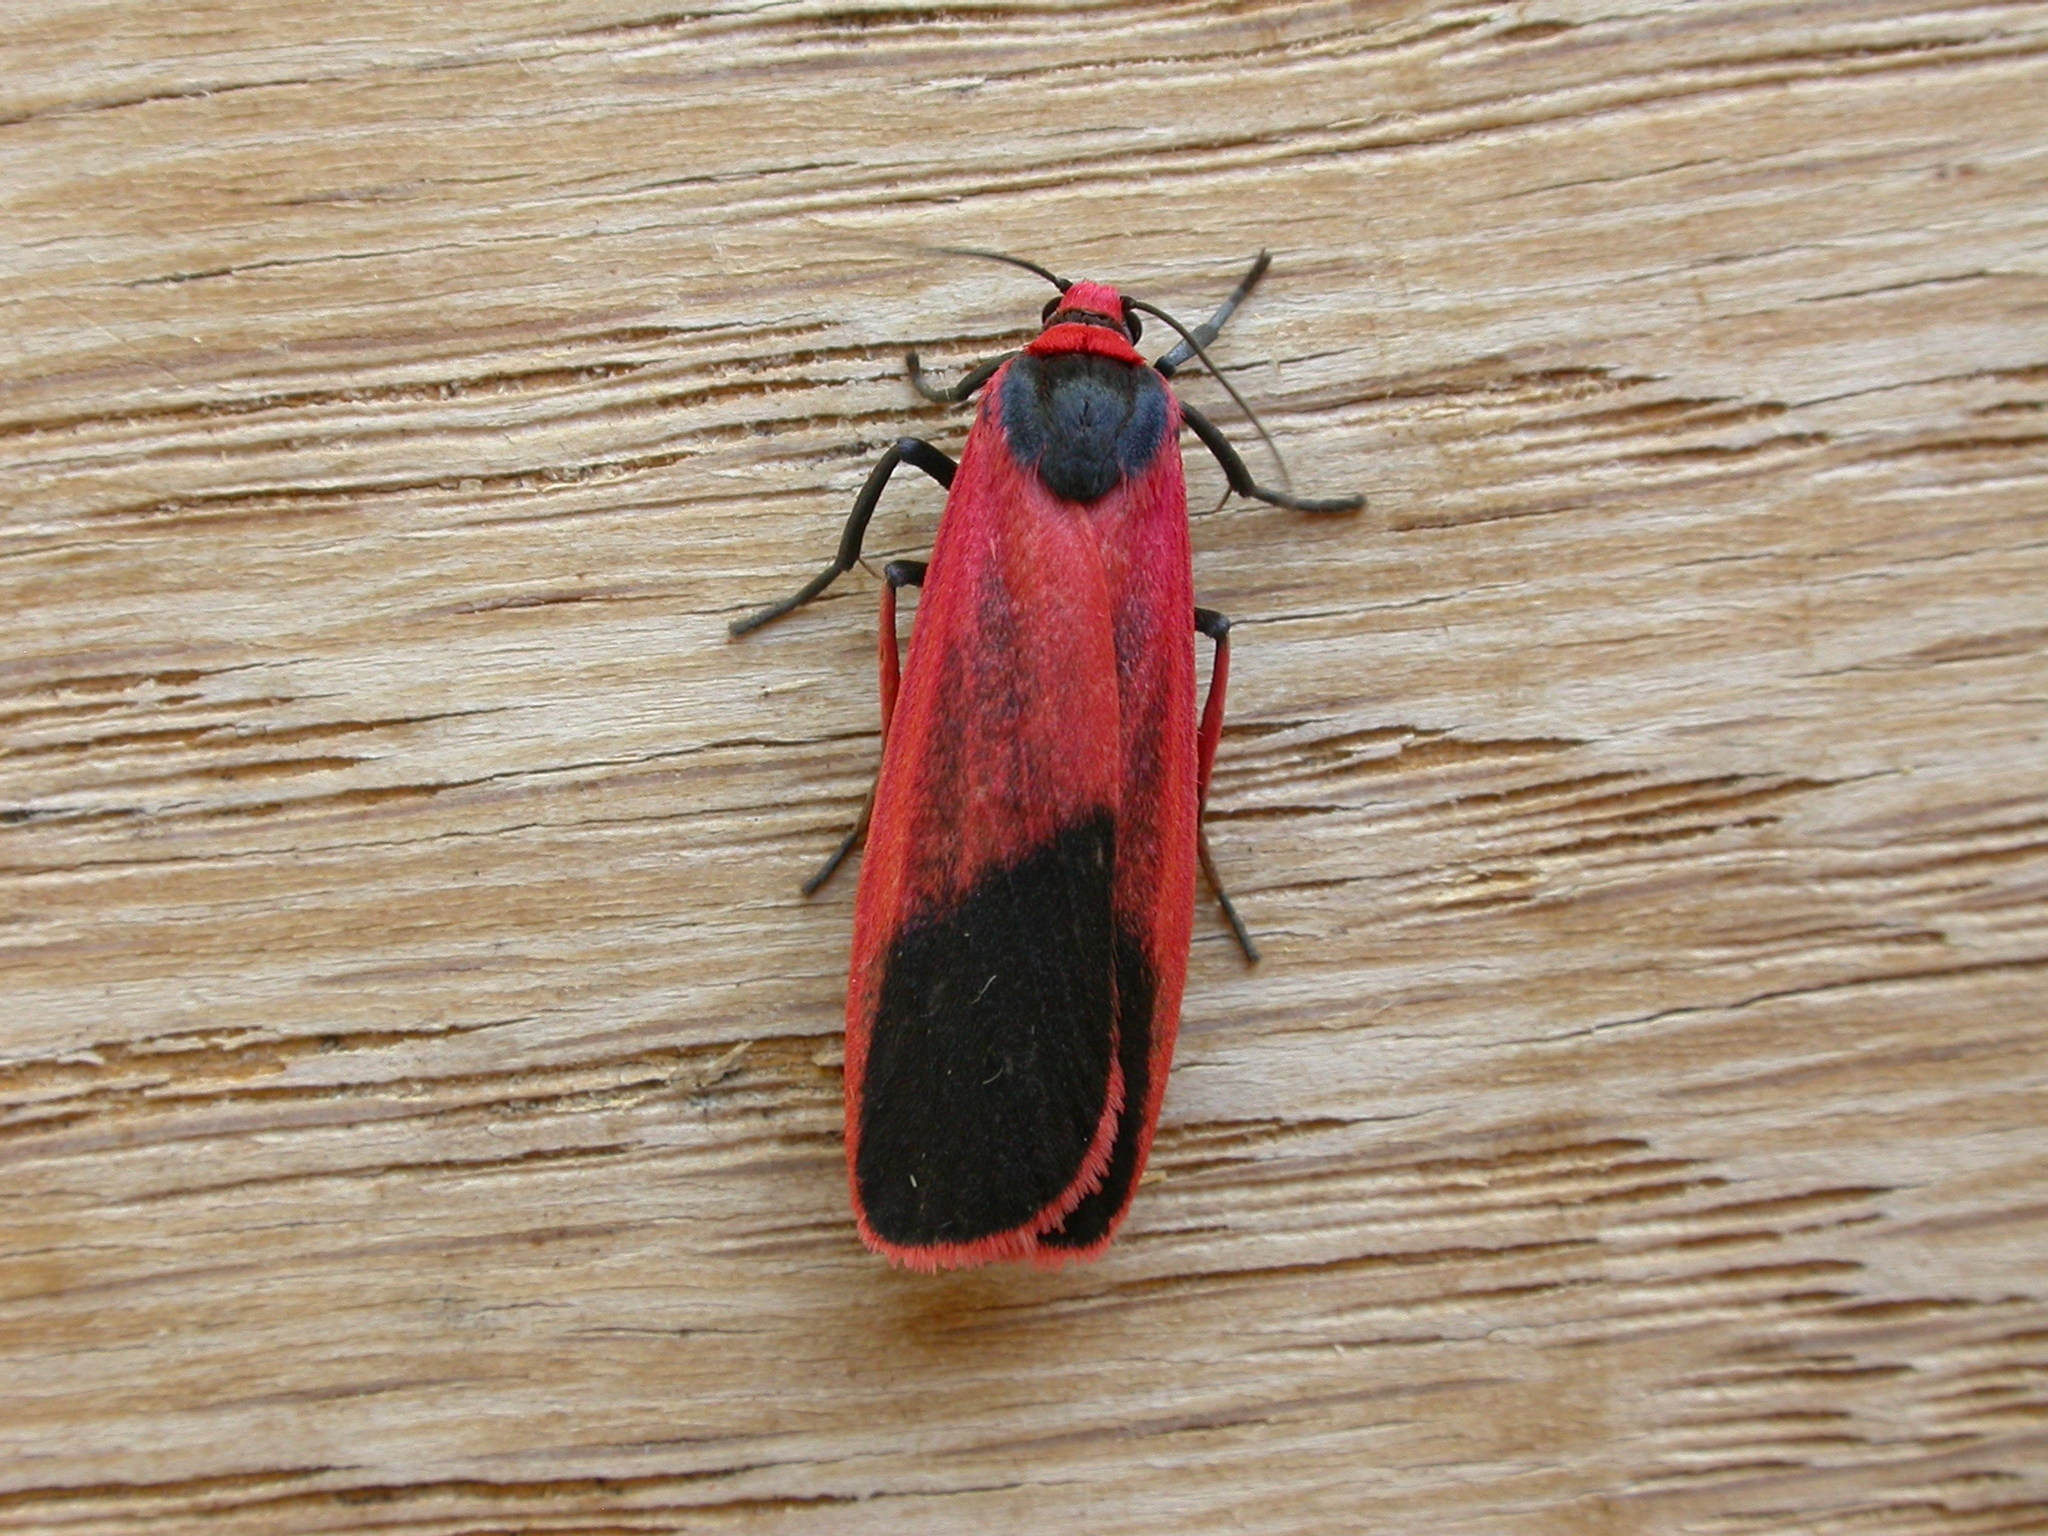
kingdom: Animalia
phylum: Arthropoda
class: Insecta
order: Lepidoptera
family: Erebidae
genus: Scoliacma
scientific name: Scoliacma bicolora
